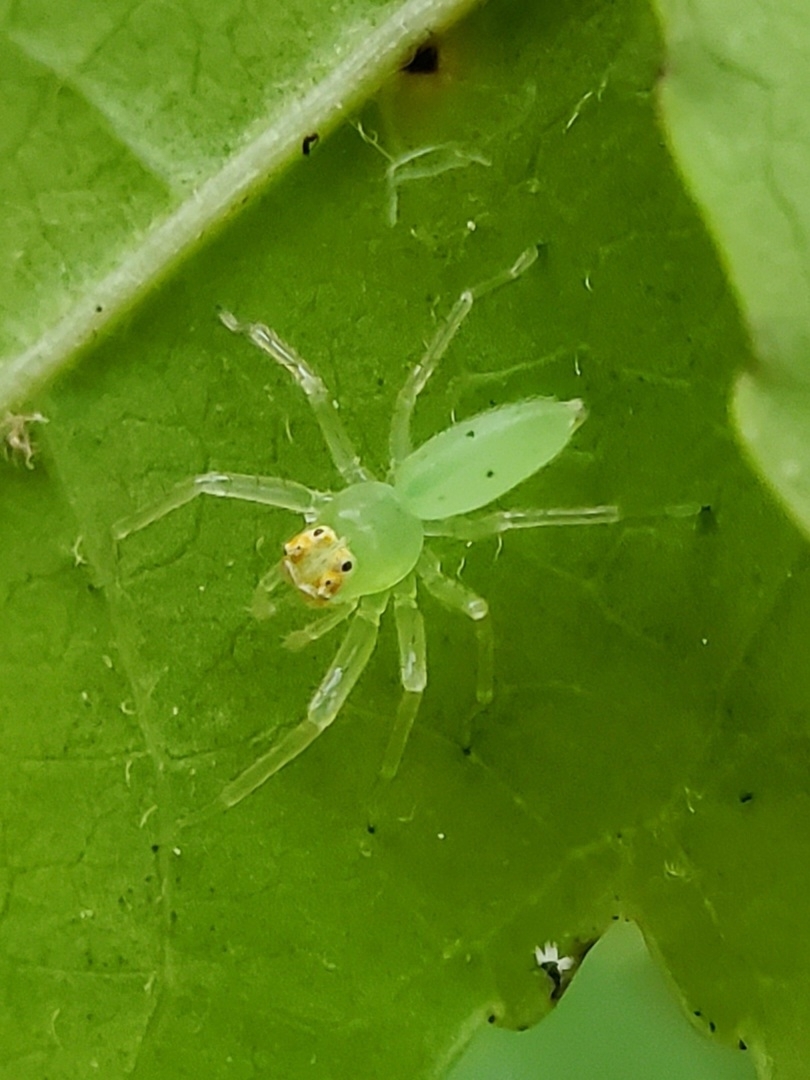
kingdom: Animalia
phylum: Arthropoda
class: Arachnida
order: Araneae
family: Salticidae
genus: Lyssomanes
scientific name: Lyssomanes viridis
